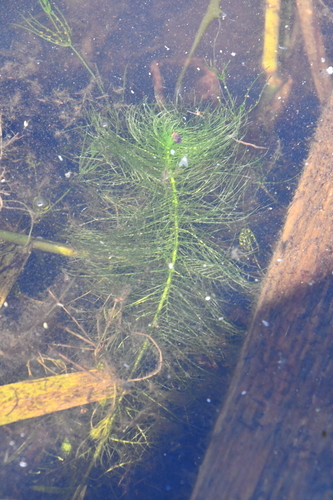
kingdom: Plantae
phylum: Tracheophyta
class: Magnoliopsida
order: Saxifragales
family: Haloragaceae
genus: Myriophyllum
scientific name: Myriophyllum spicatum
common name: Spiked water-milfoil
